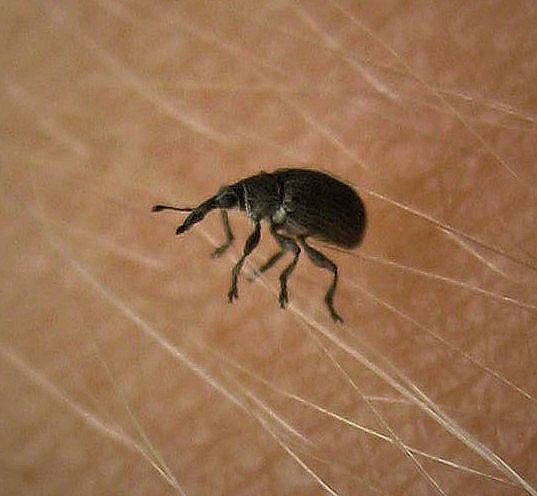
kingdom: Animalia
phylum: Arthropoda
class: Insecta
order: Coleoptera
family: Brentidae
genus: Betulapion
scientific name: Betulapion simile
